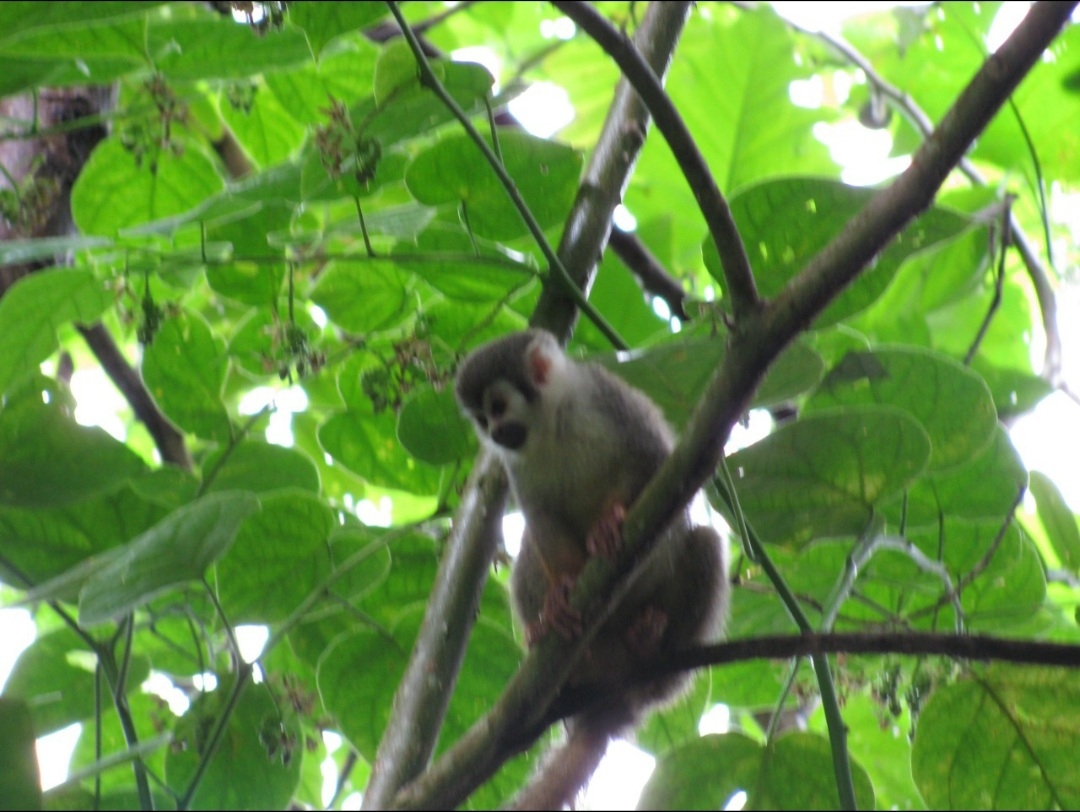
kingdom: Animalia
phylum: Chordata
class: Mammalia
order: Primates
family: Cebidae
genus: Saimiri
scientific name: Saimiri cassiquiarensis
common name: Humboldt’s squirrel monkey
